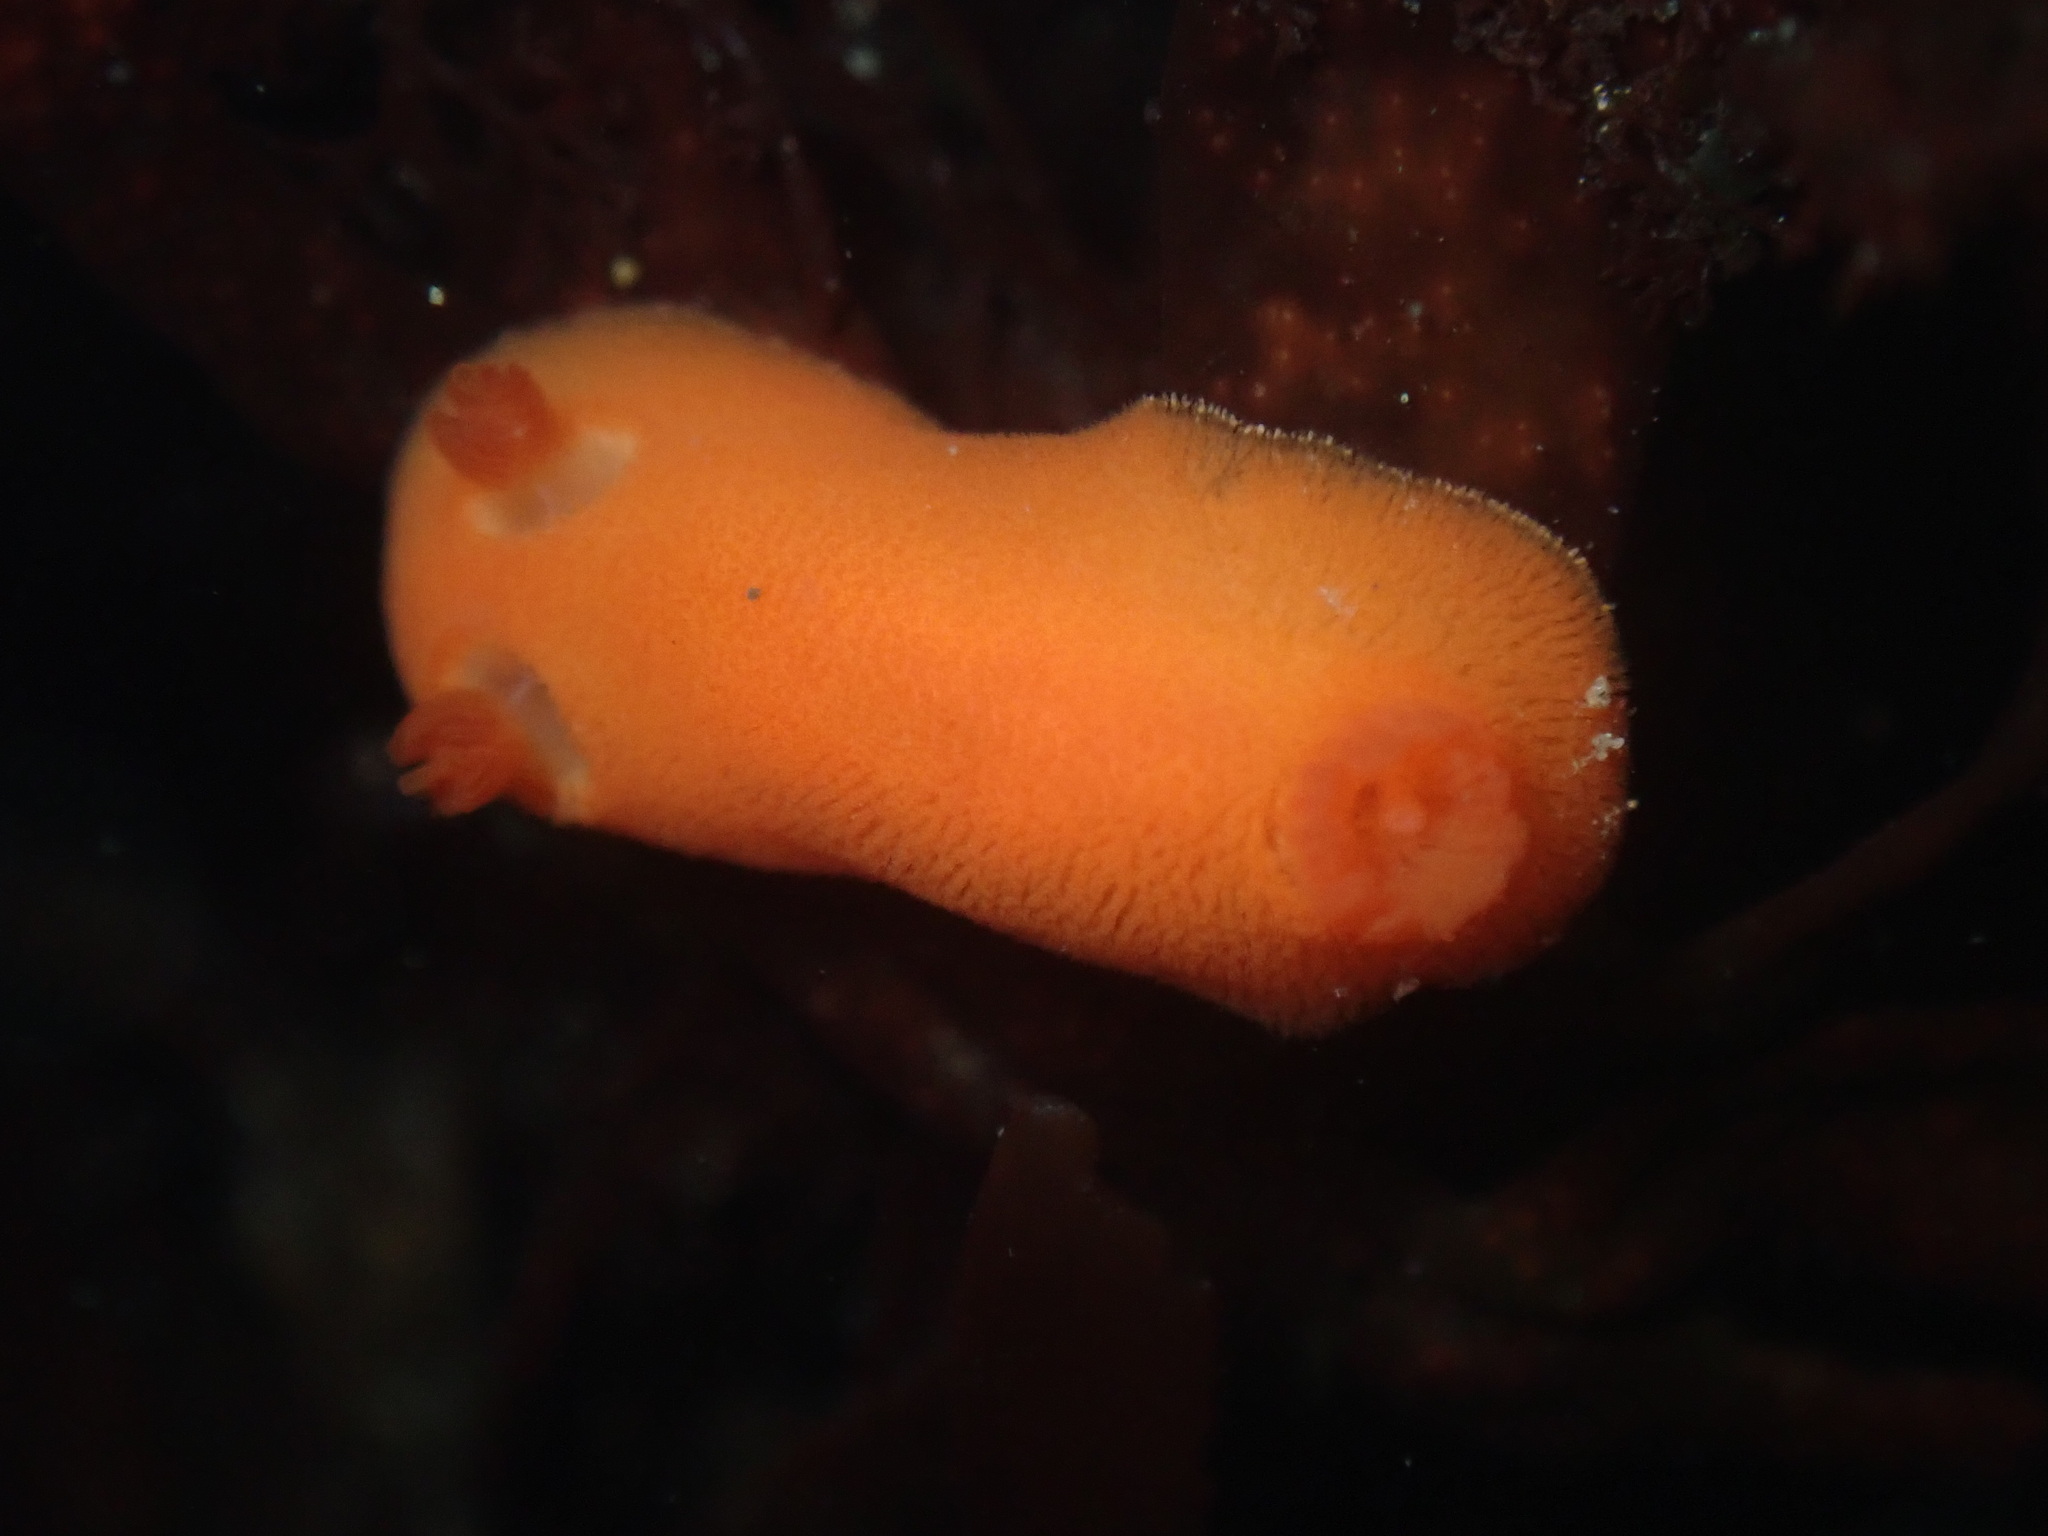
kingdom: Animalia
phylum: Mollusca
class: Gastropoda
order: Nudibranchia
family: Discodorididae
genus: Rostanga
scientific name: Rostanga pulchra
